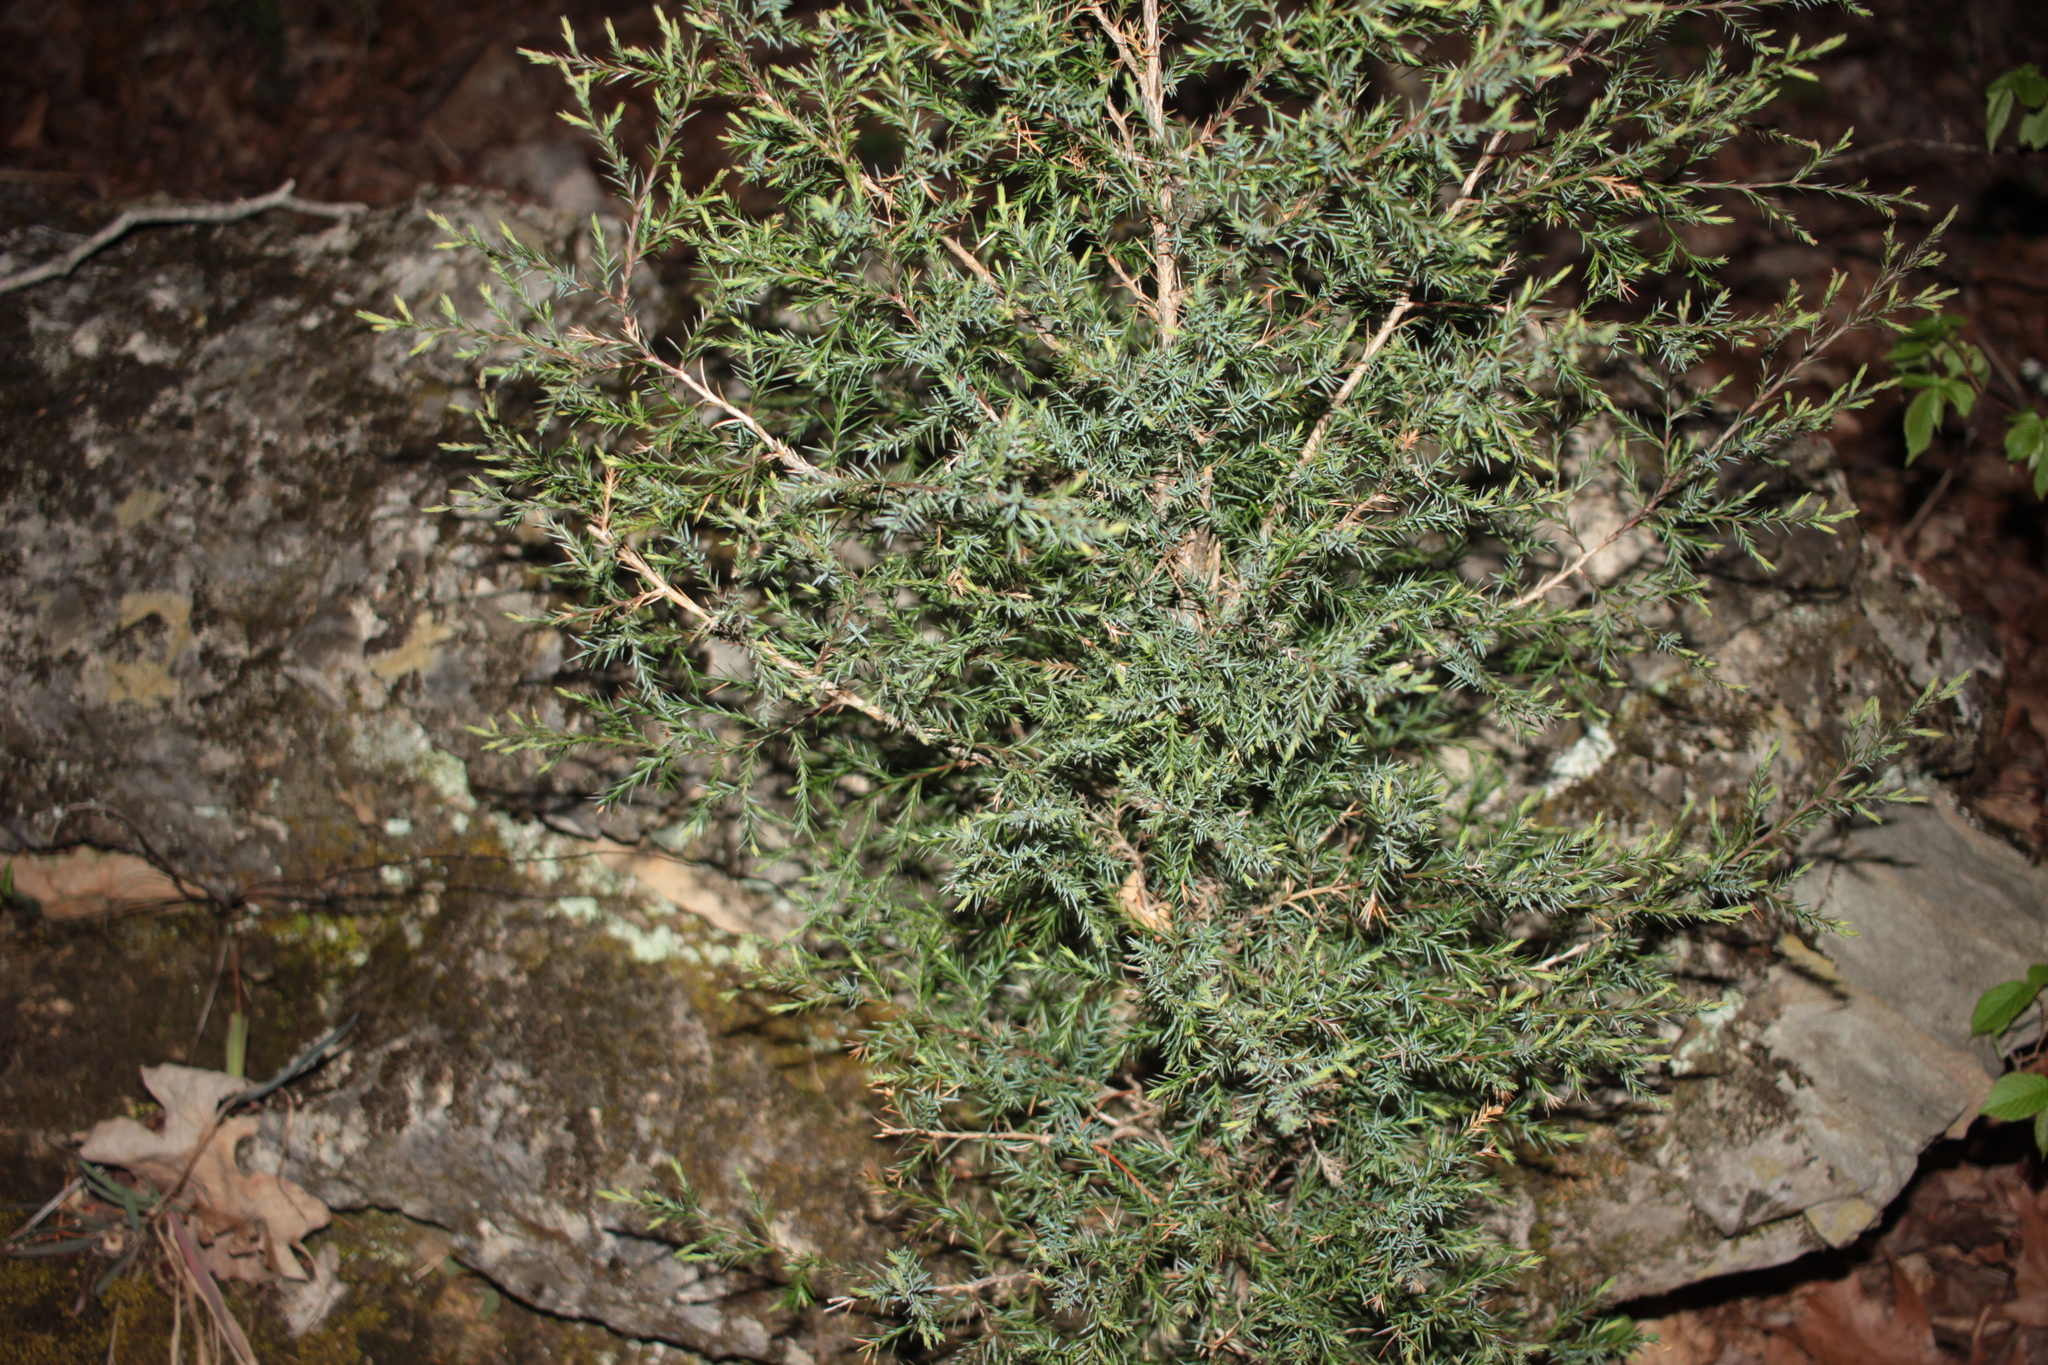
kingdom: Plantae
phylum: Tracheophyta
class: Pinopsida
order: Pinales
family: Cupressaceae
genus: Juniperus
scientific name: Juniperus virginiana
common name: Red juniper
